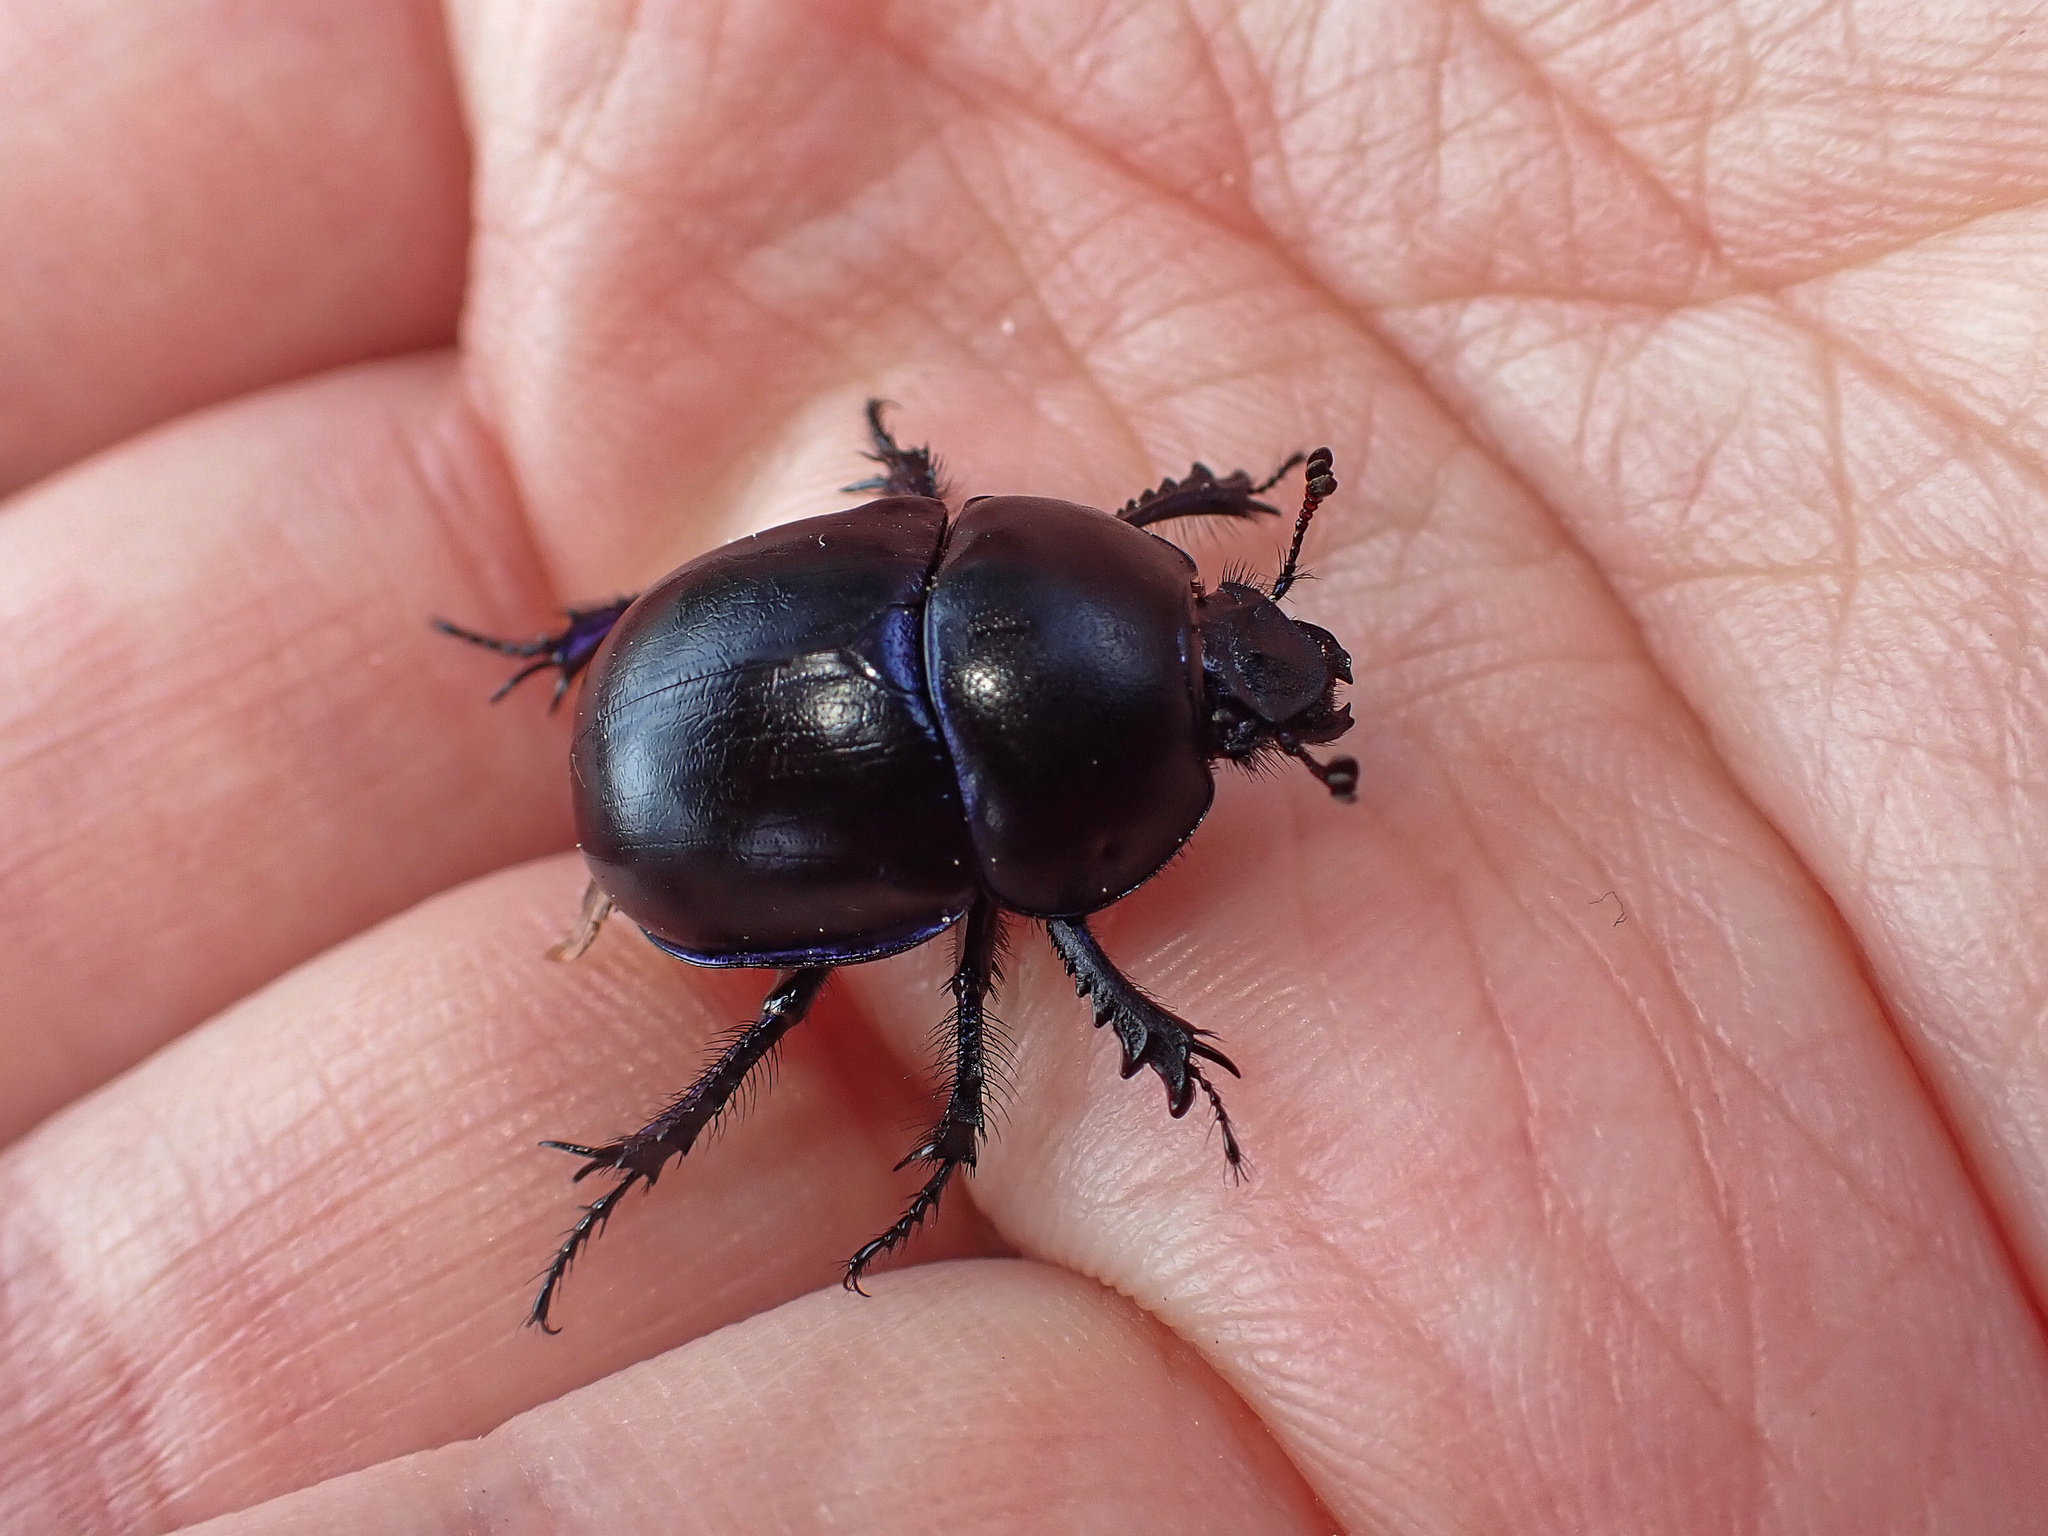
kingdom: Animalia
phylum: Arthropoda
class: Insecta
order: Coleoptera
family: Geotrupidae
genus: Trypocopris
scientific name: Trypocopris vernalis
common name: Spring dumbledor
